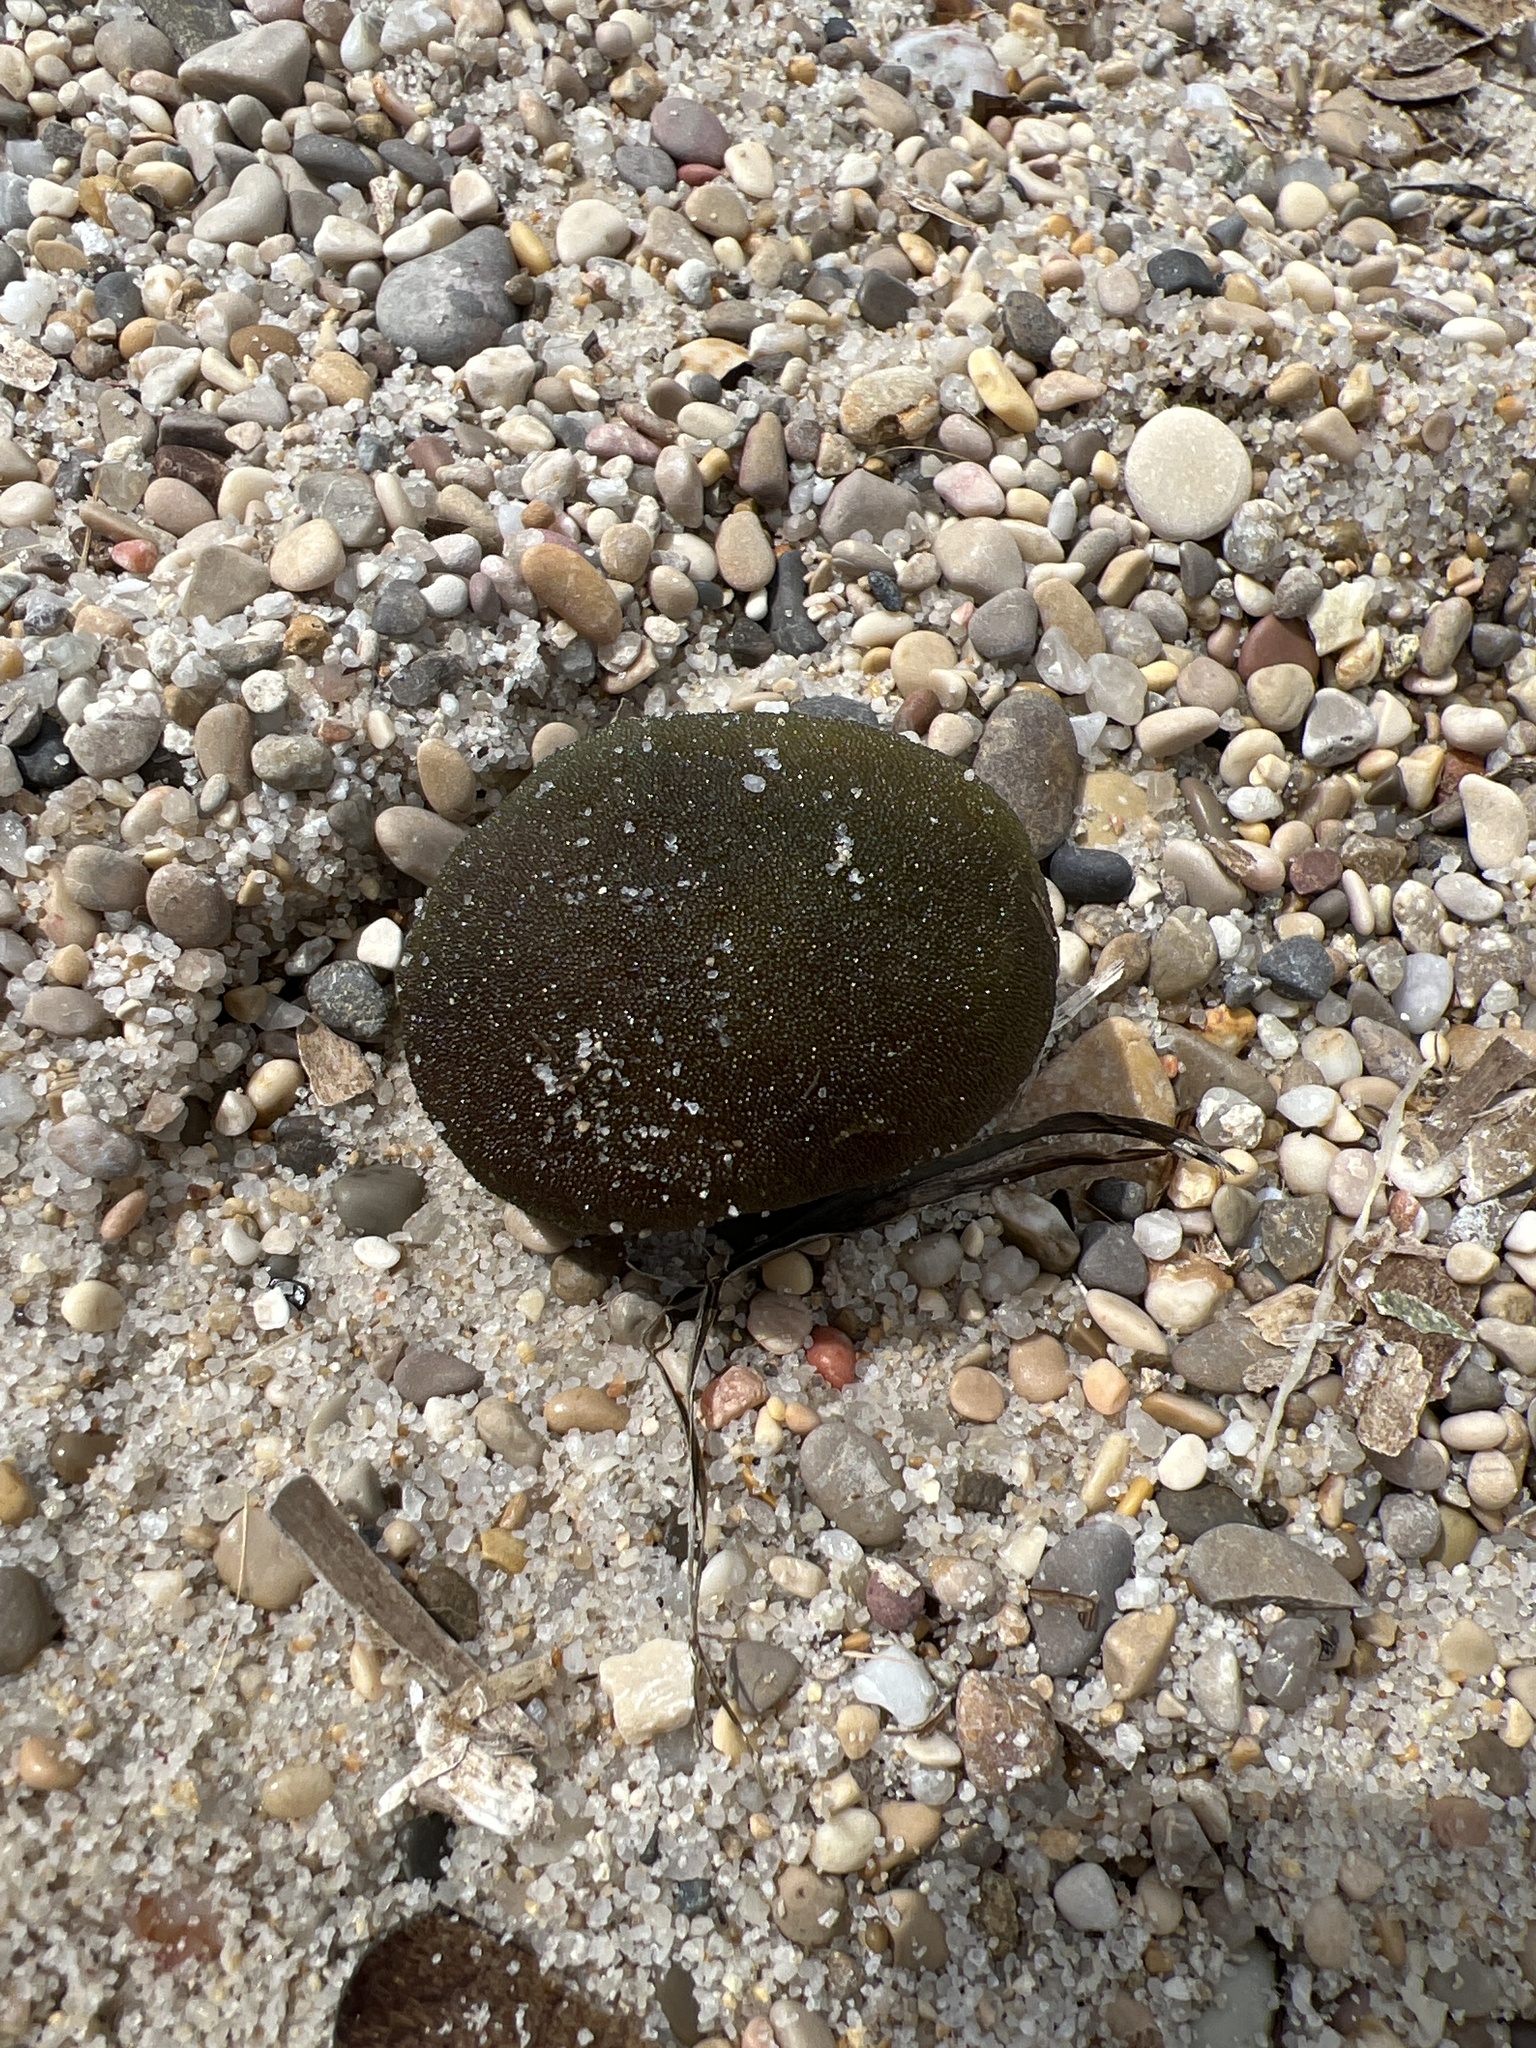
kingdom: Plantae
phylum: Chlorophyta
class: Ulvophyceae
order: Bryopsidales
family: Codiaceae
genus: Codium
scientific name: Codium bursa
